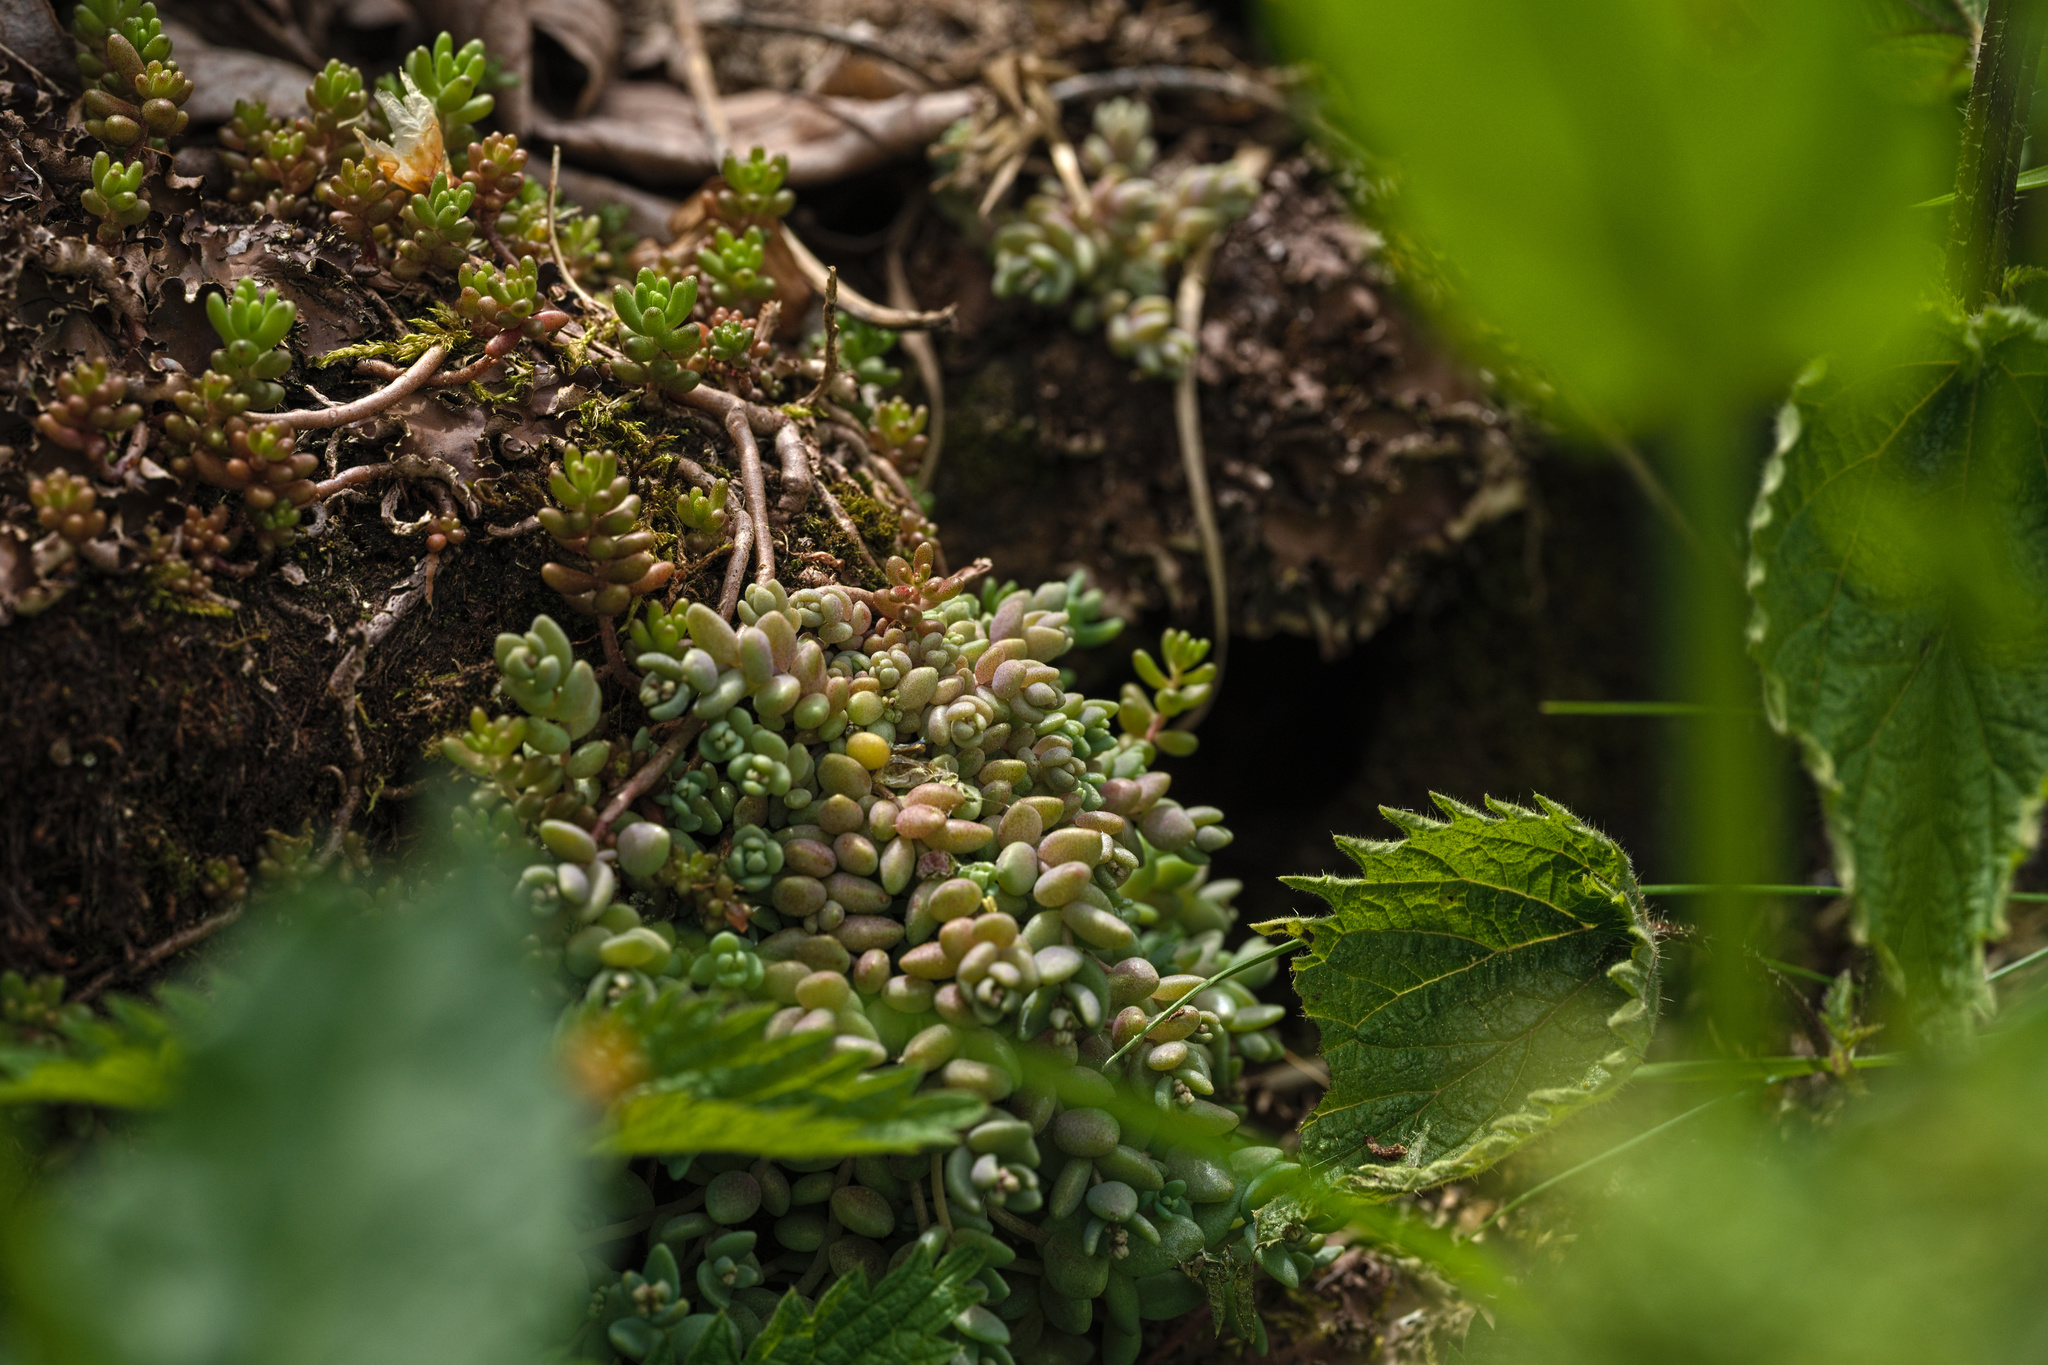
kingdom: Plantae
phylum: Tracheophyta
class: Magnoliopsida
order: Saxifragales
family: Crassulaceae
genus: Sedum
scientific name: Sedum dasyphyllum
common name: Thick-leaf stonecrop
